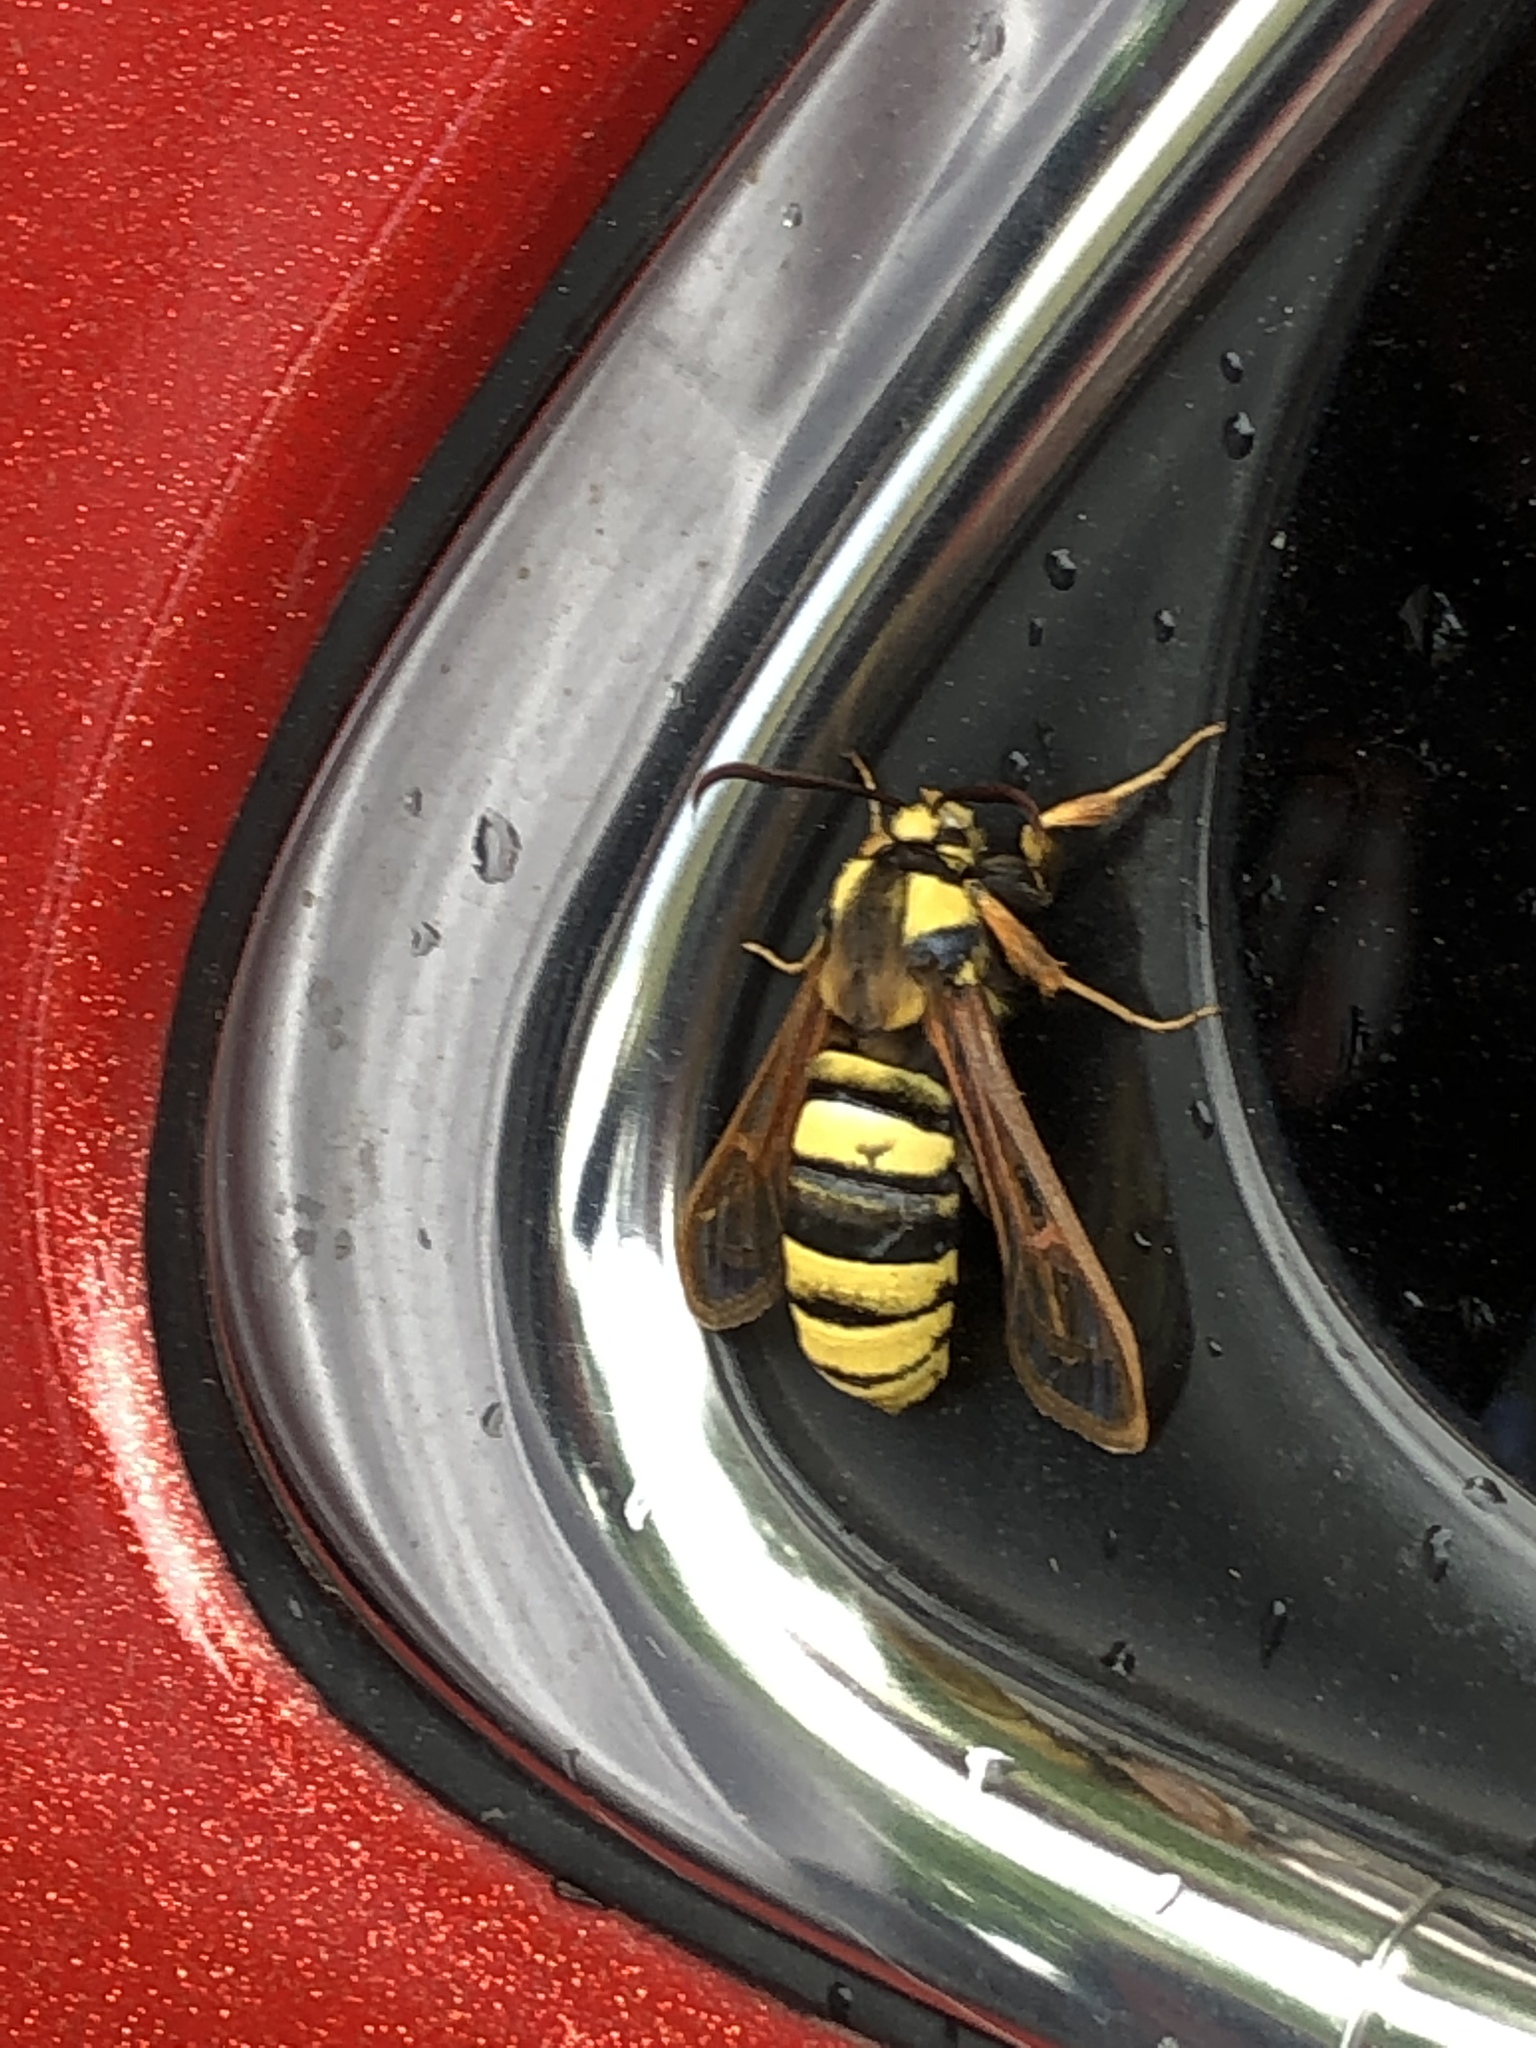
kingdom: Animalia
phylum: Arthropoda
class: Insecta
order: Lepidoptera
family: Sesiidae
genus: Sesia
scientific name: Sesia apiformis
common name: Hornet moth
